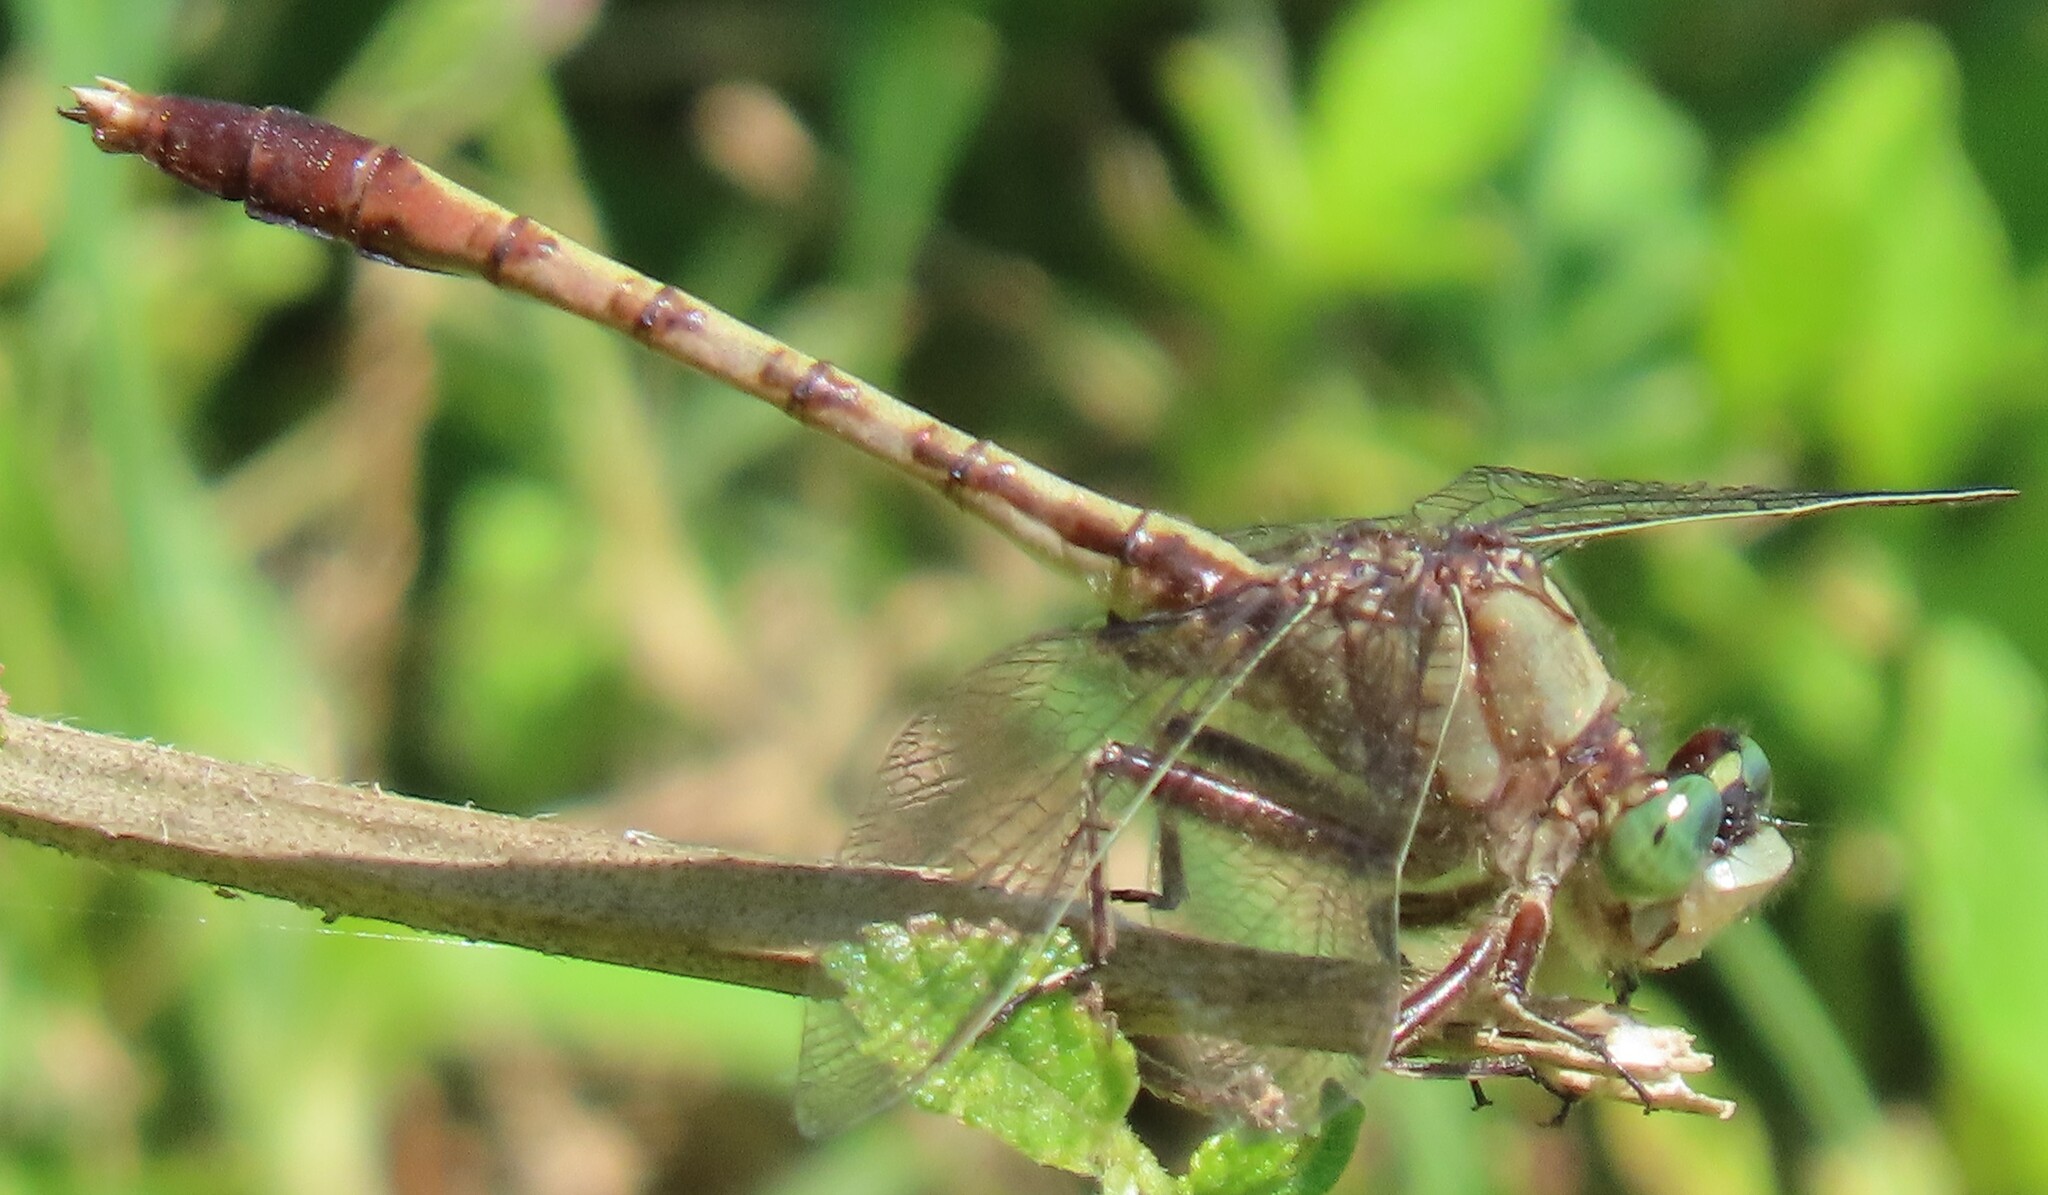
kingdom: Animalia
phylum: Arthropoda
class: Insecta
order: Odonata
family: Gomphidae
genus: Arigomphus
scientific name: Arigomphus pallidus
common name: Gray-green clubtail
